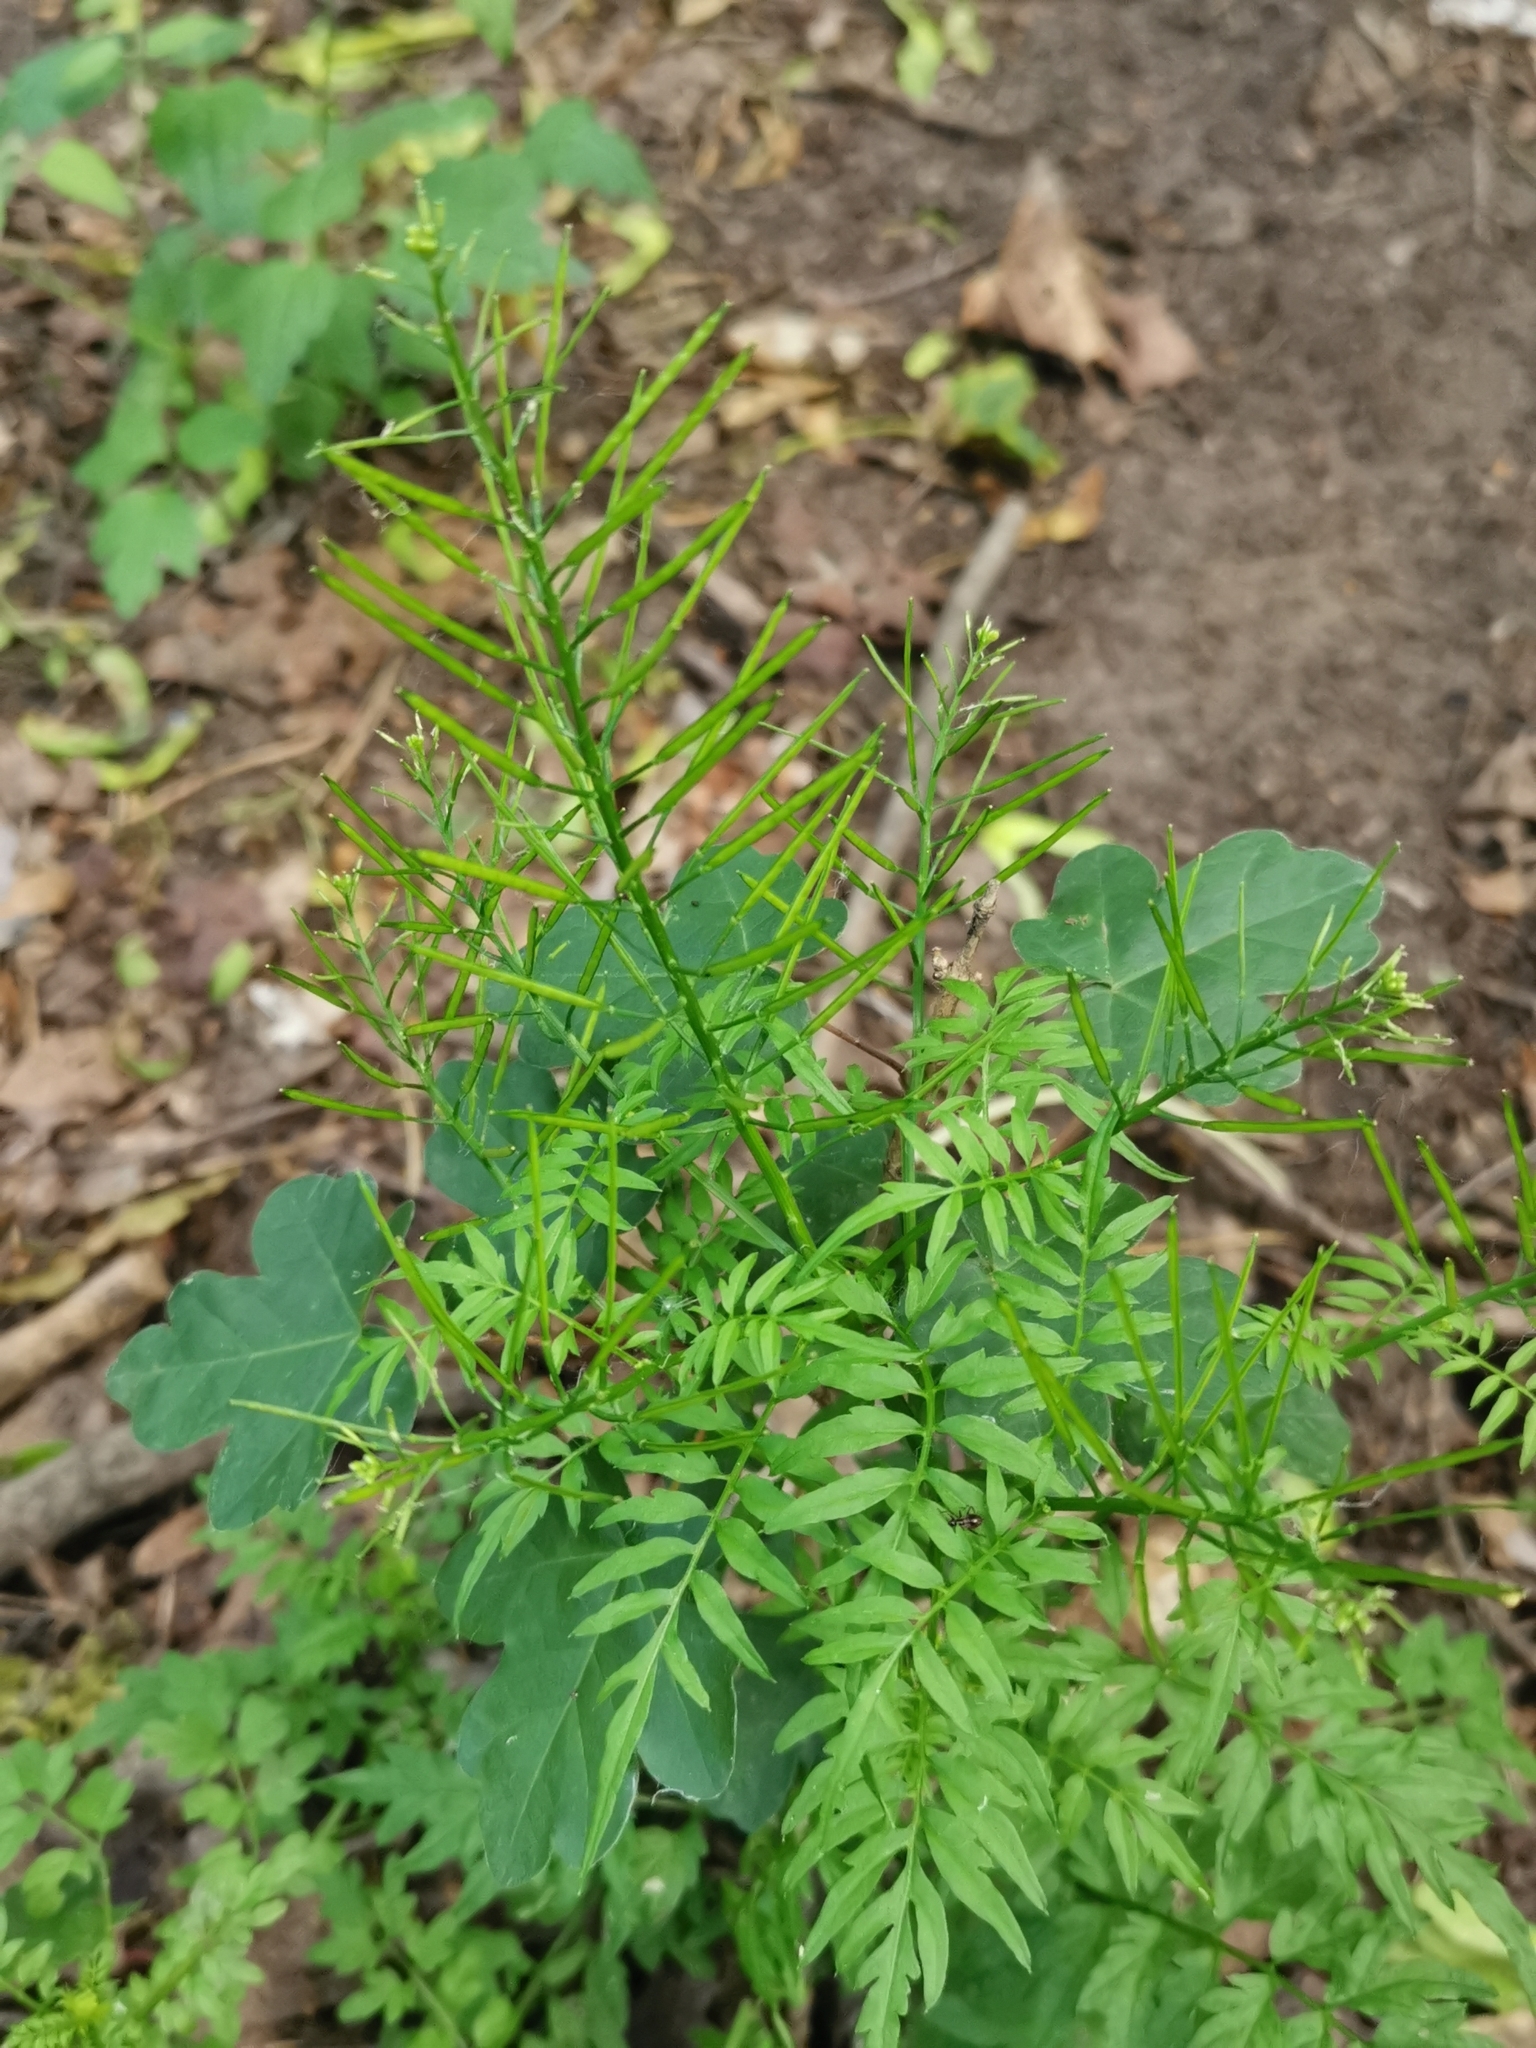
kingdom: Plantae
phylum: Tracheophyta
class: Magnoliopsida
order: Brassicales
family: Brassicaceae
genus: Cardamine
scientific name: Cardamine impatiens
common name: Narrow-leaved bitter-cress
